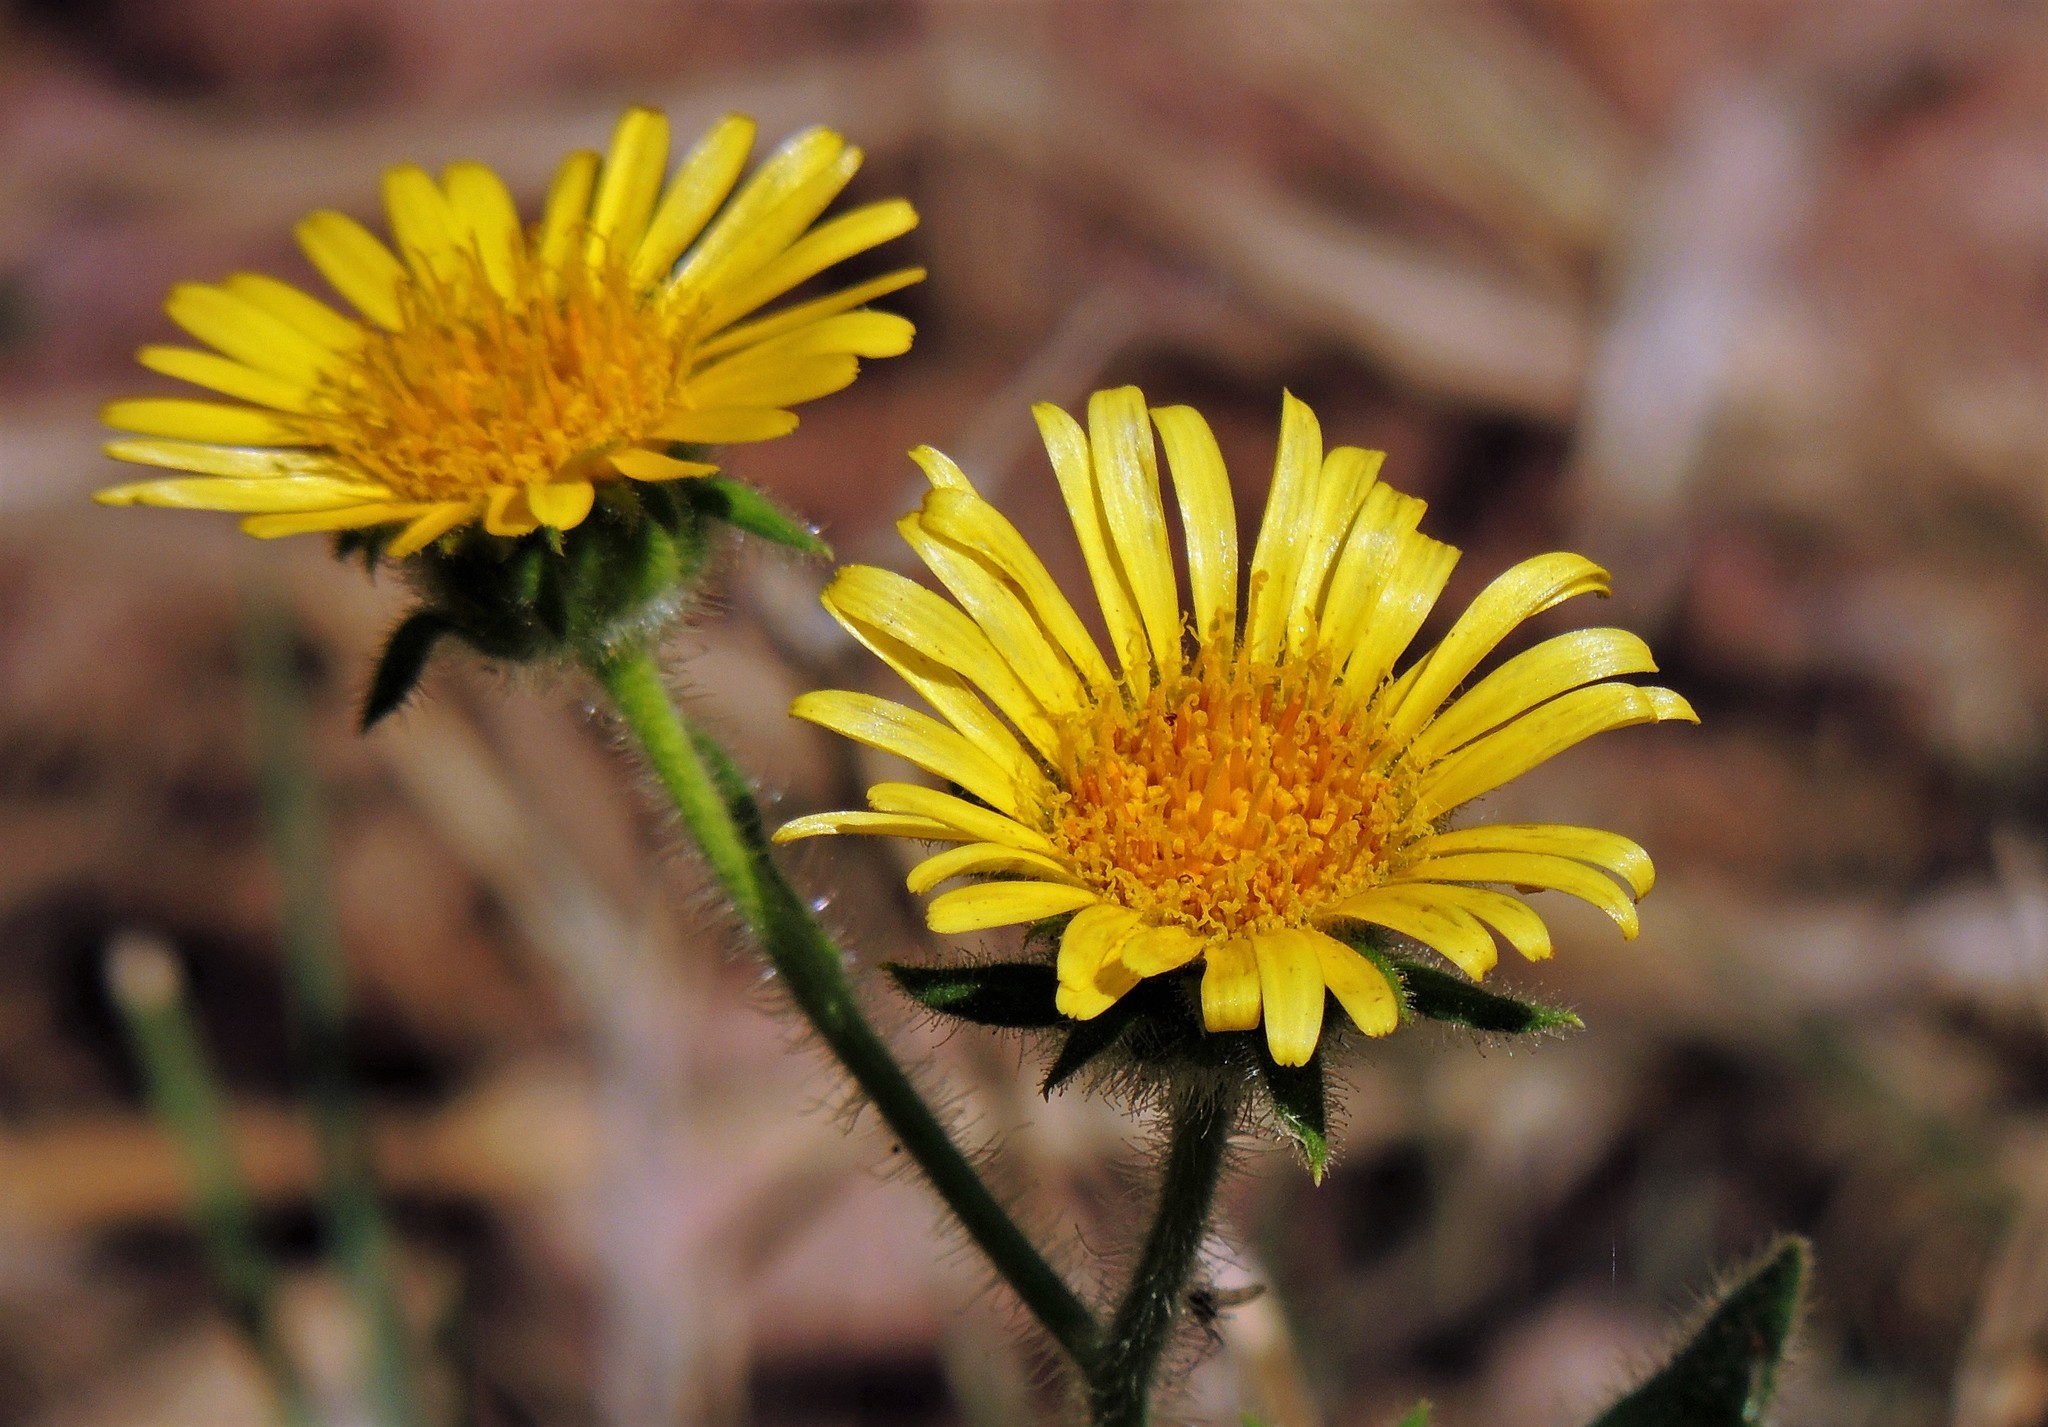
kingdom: Plantae
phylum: Tracheophyta
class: Magnoliopsida
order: Asterales
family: Asteraceae
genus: Microliabum
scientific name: Microliabum polymnioides
